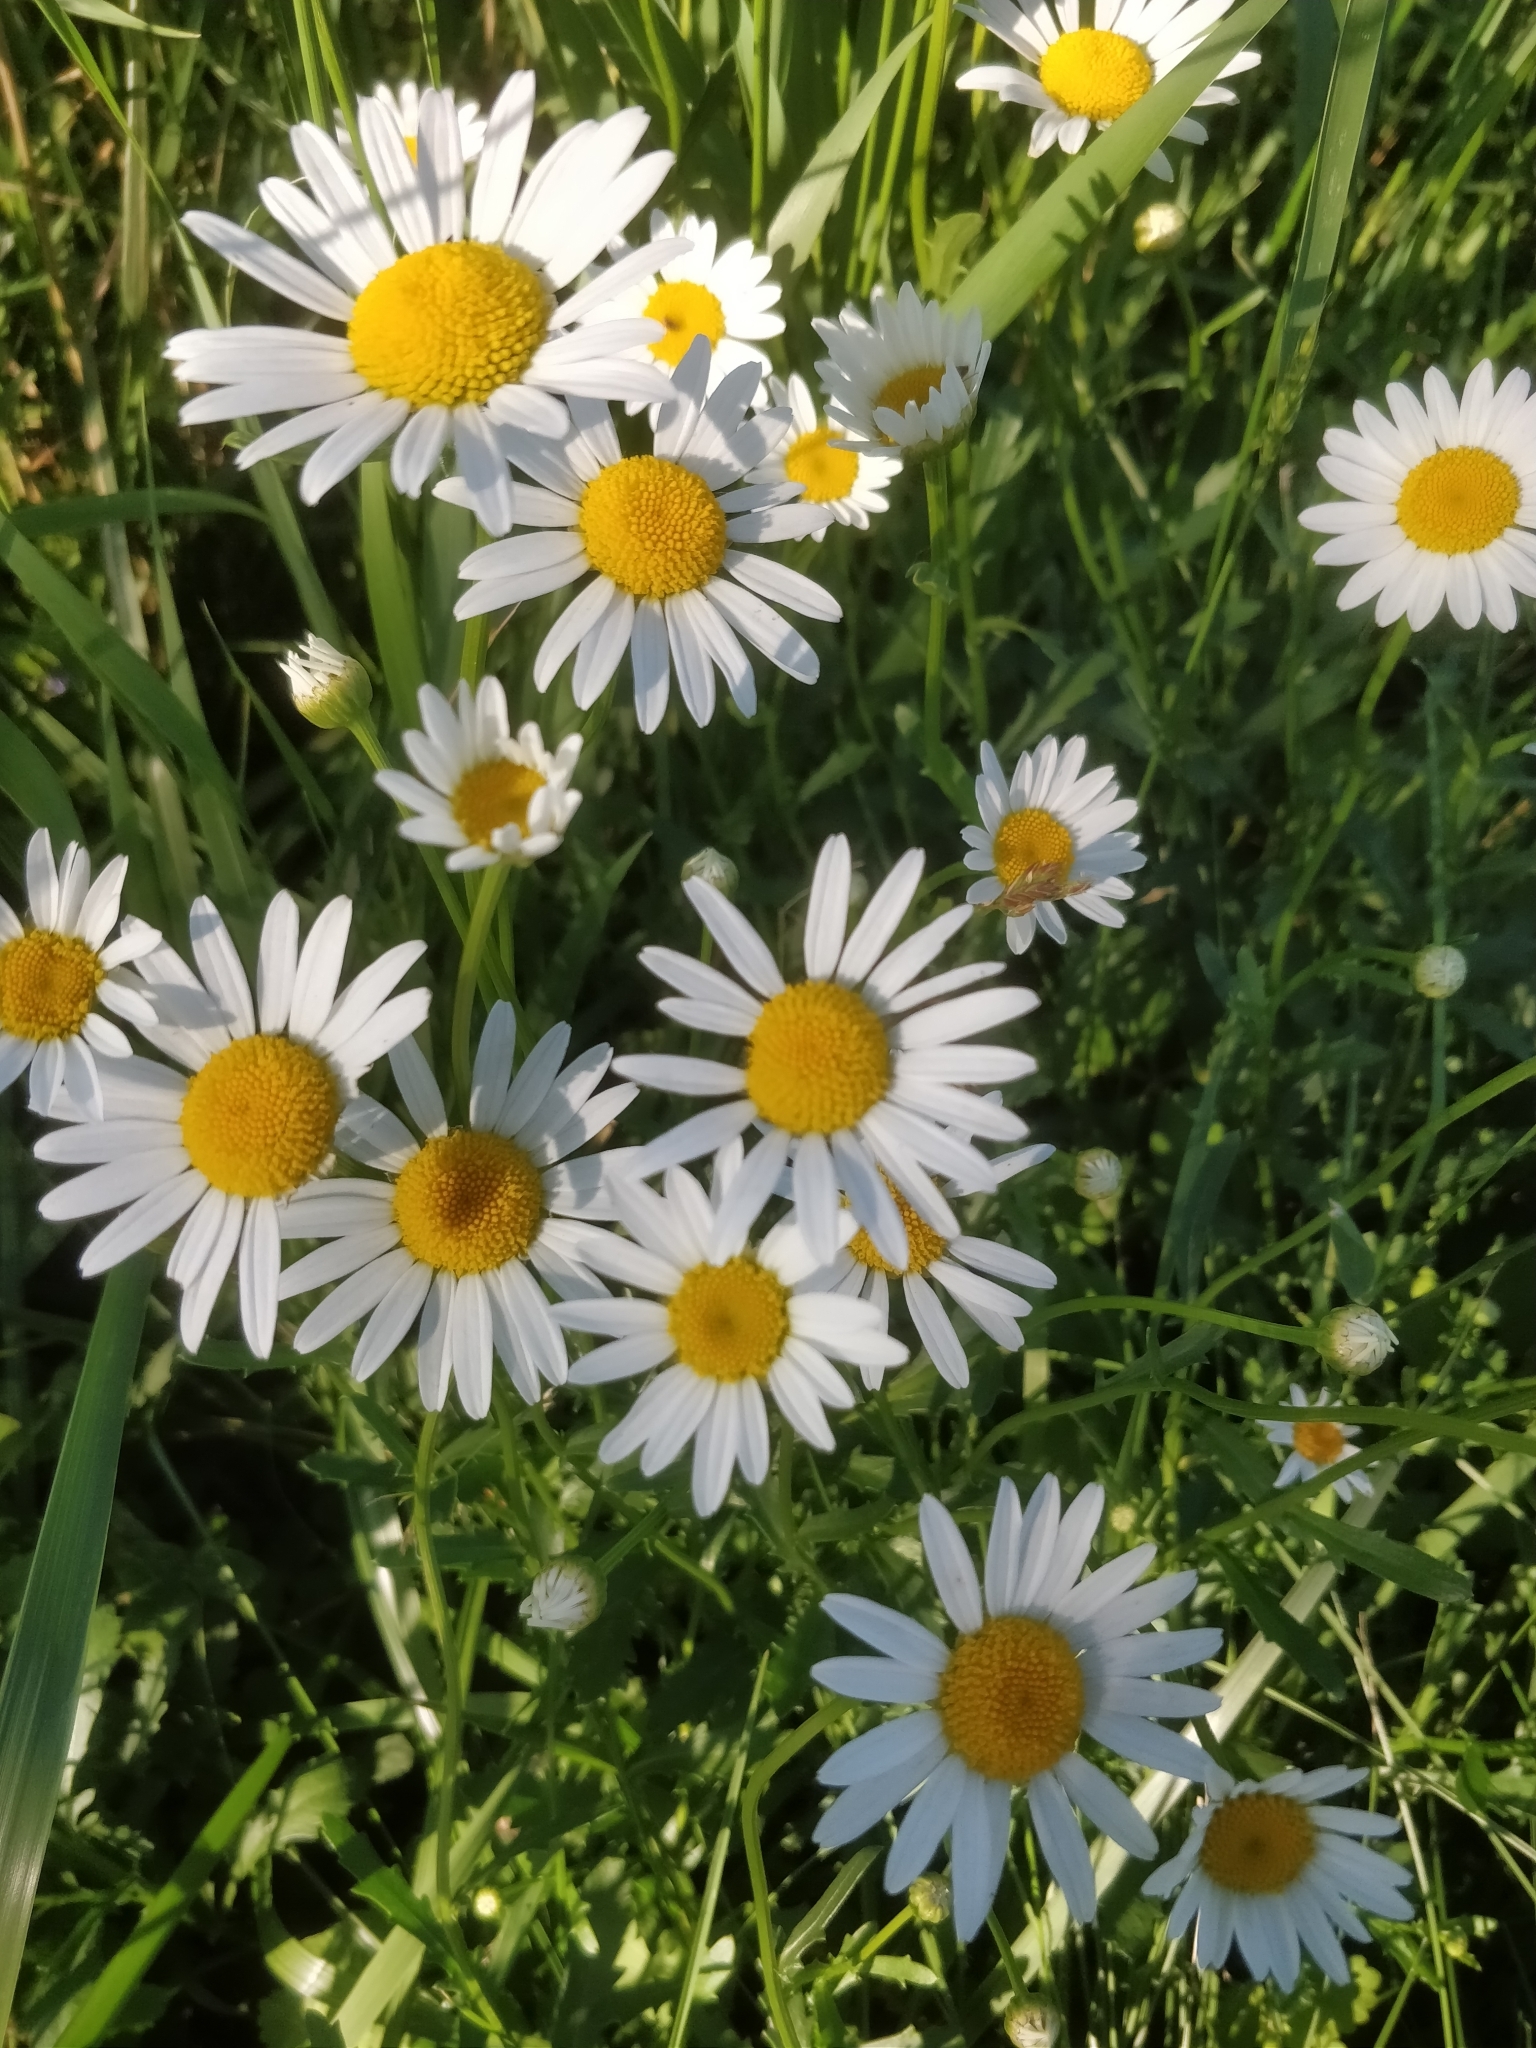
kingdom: Plantae
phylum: Tracheophyta
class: Magnoliopsida
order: Asterales
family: Asteraceae
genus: Leucanthemum
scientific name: Leucanthemum vulgare
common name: Oxeye daisy
